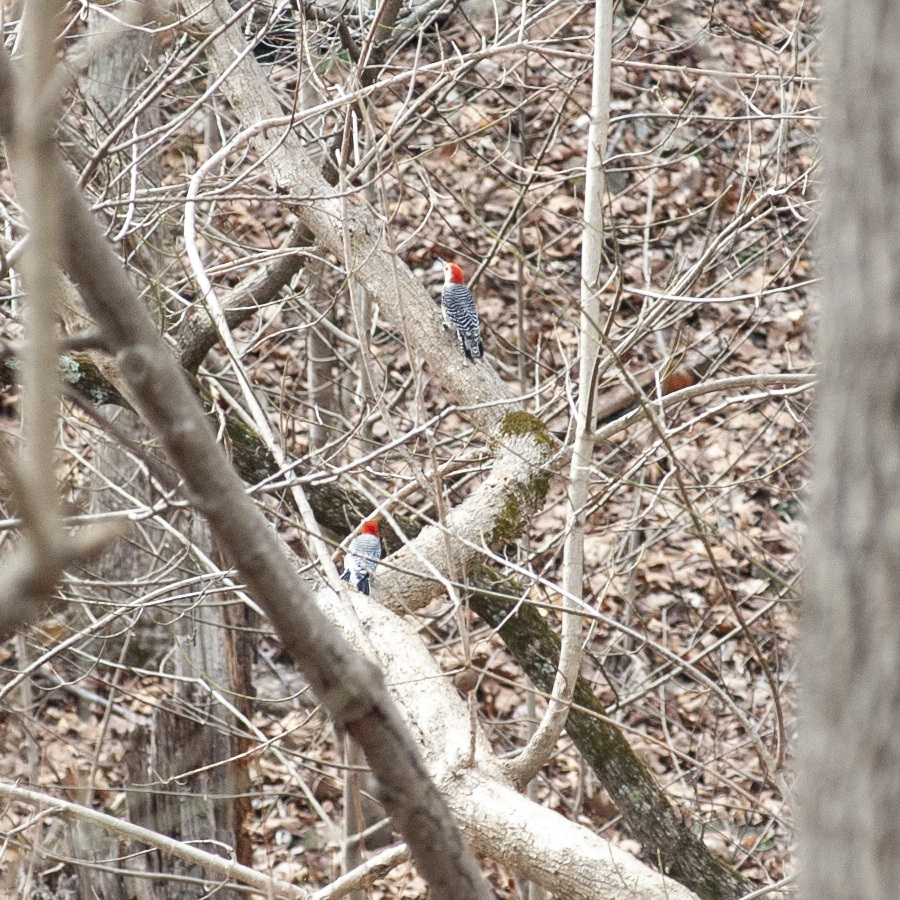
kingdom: Animalia
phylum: Chordata
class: Aves
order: Piciformes
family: Picidae
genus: Melanerpes
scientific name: Melanerpes carolinus
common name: Red-bellied woodpecker
